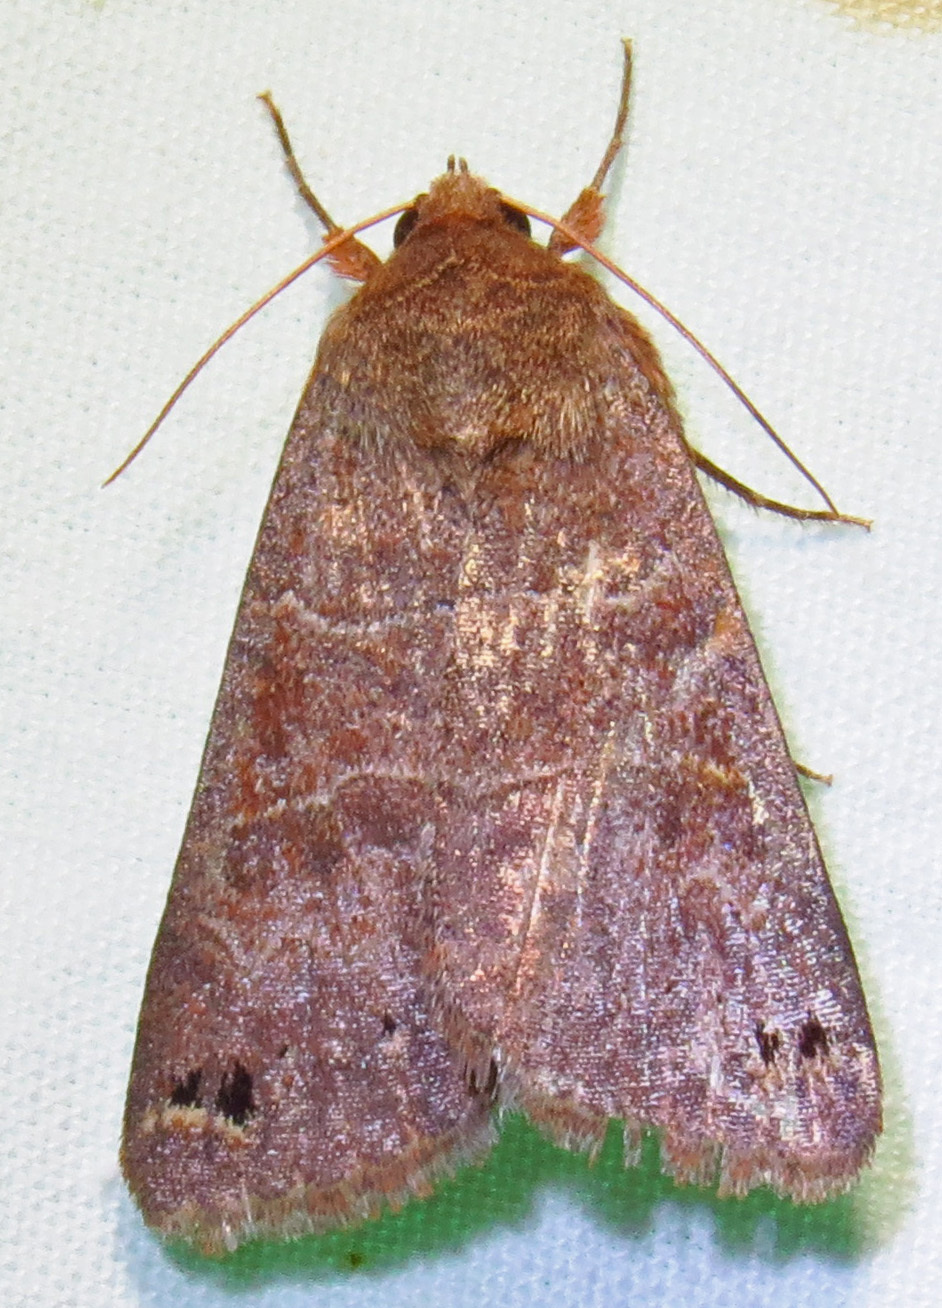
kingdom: Animalia
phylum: Arthropoda
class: Insecta
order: Lepidoptera
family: Erebidae
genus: Cissusa
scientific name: Cissusa spadix
